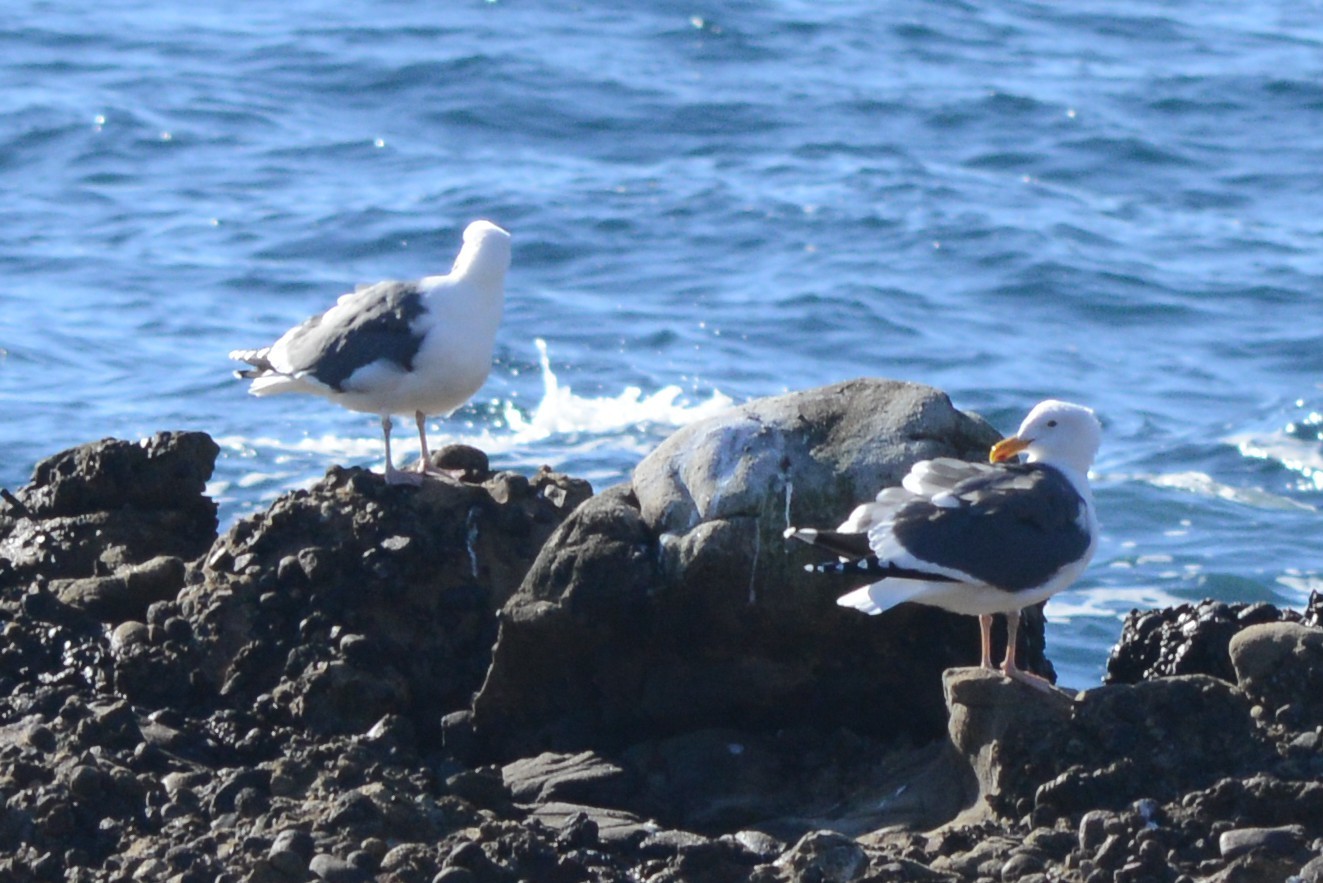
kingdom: Animalia
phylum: Chordata
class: Aves
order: Charadriiformes
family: Laridae
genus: Larus
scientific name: Larus occidentalis
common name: Western gull
